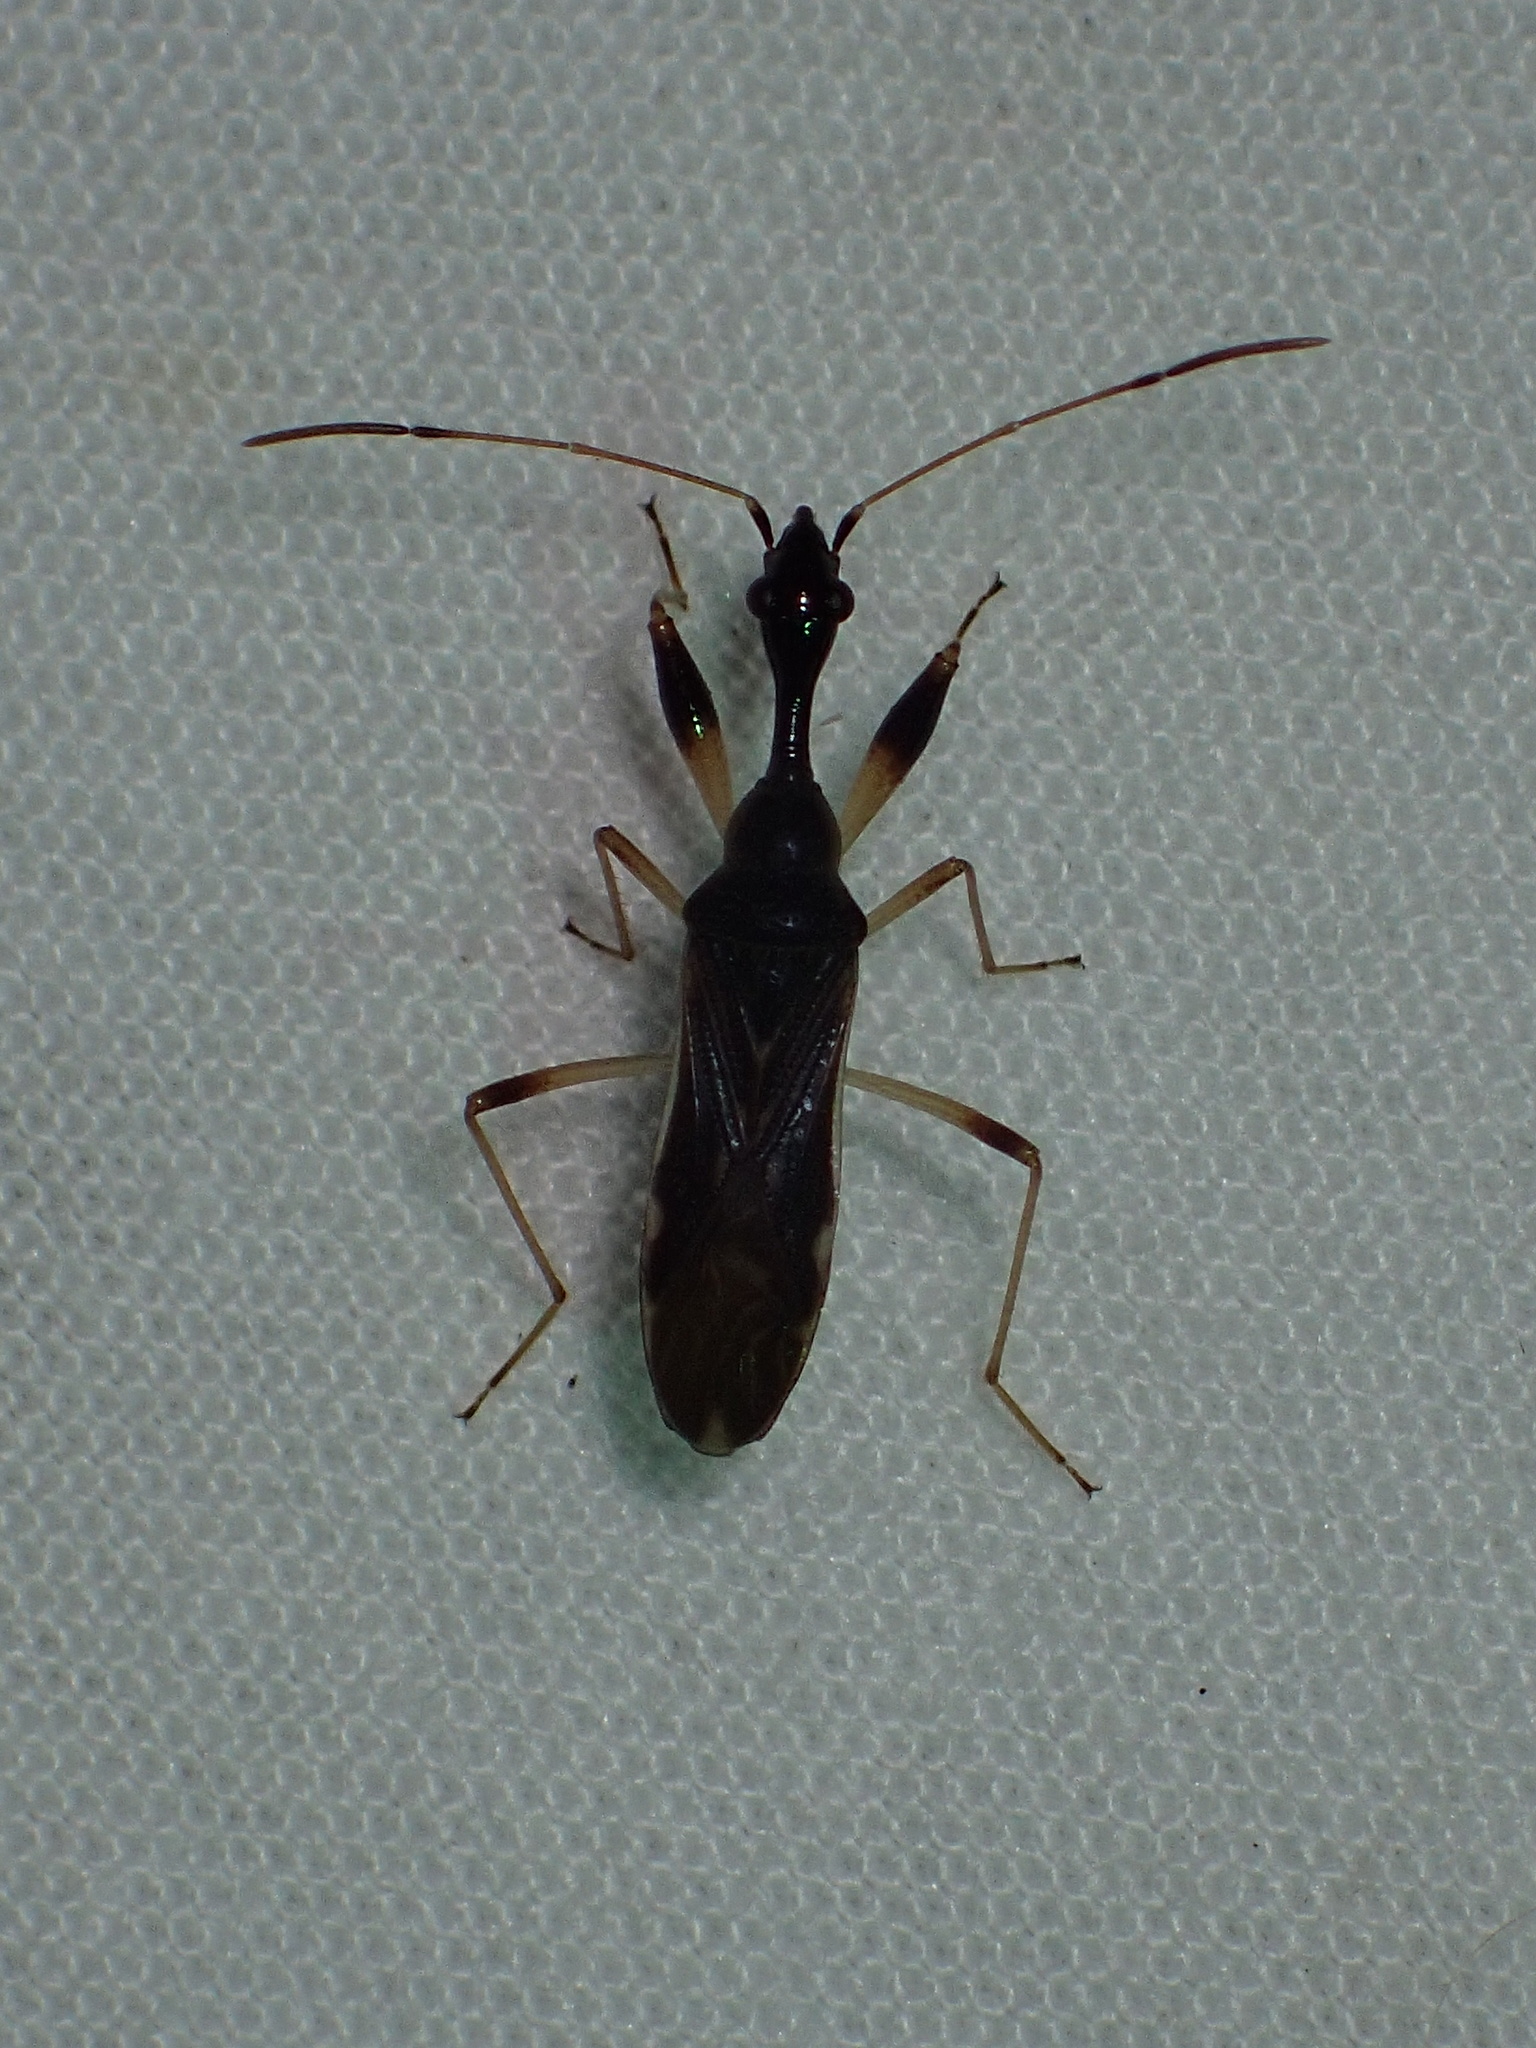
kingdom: Animalia
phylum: Arthropoda
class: Insecta
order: Hemiptera
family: Rhyparochromidae
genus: Myodocha
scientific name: Myodocha serripes
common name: Long-necked seed bug
